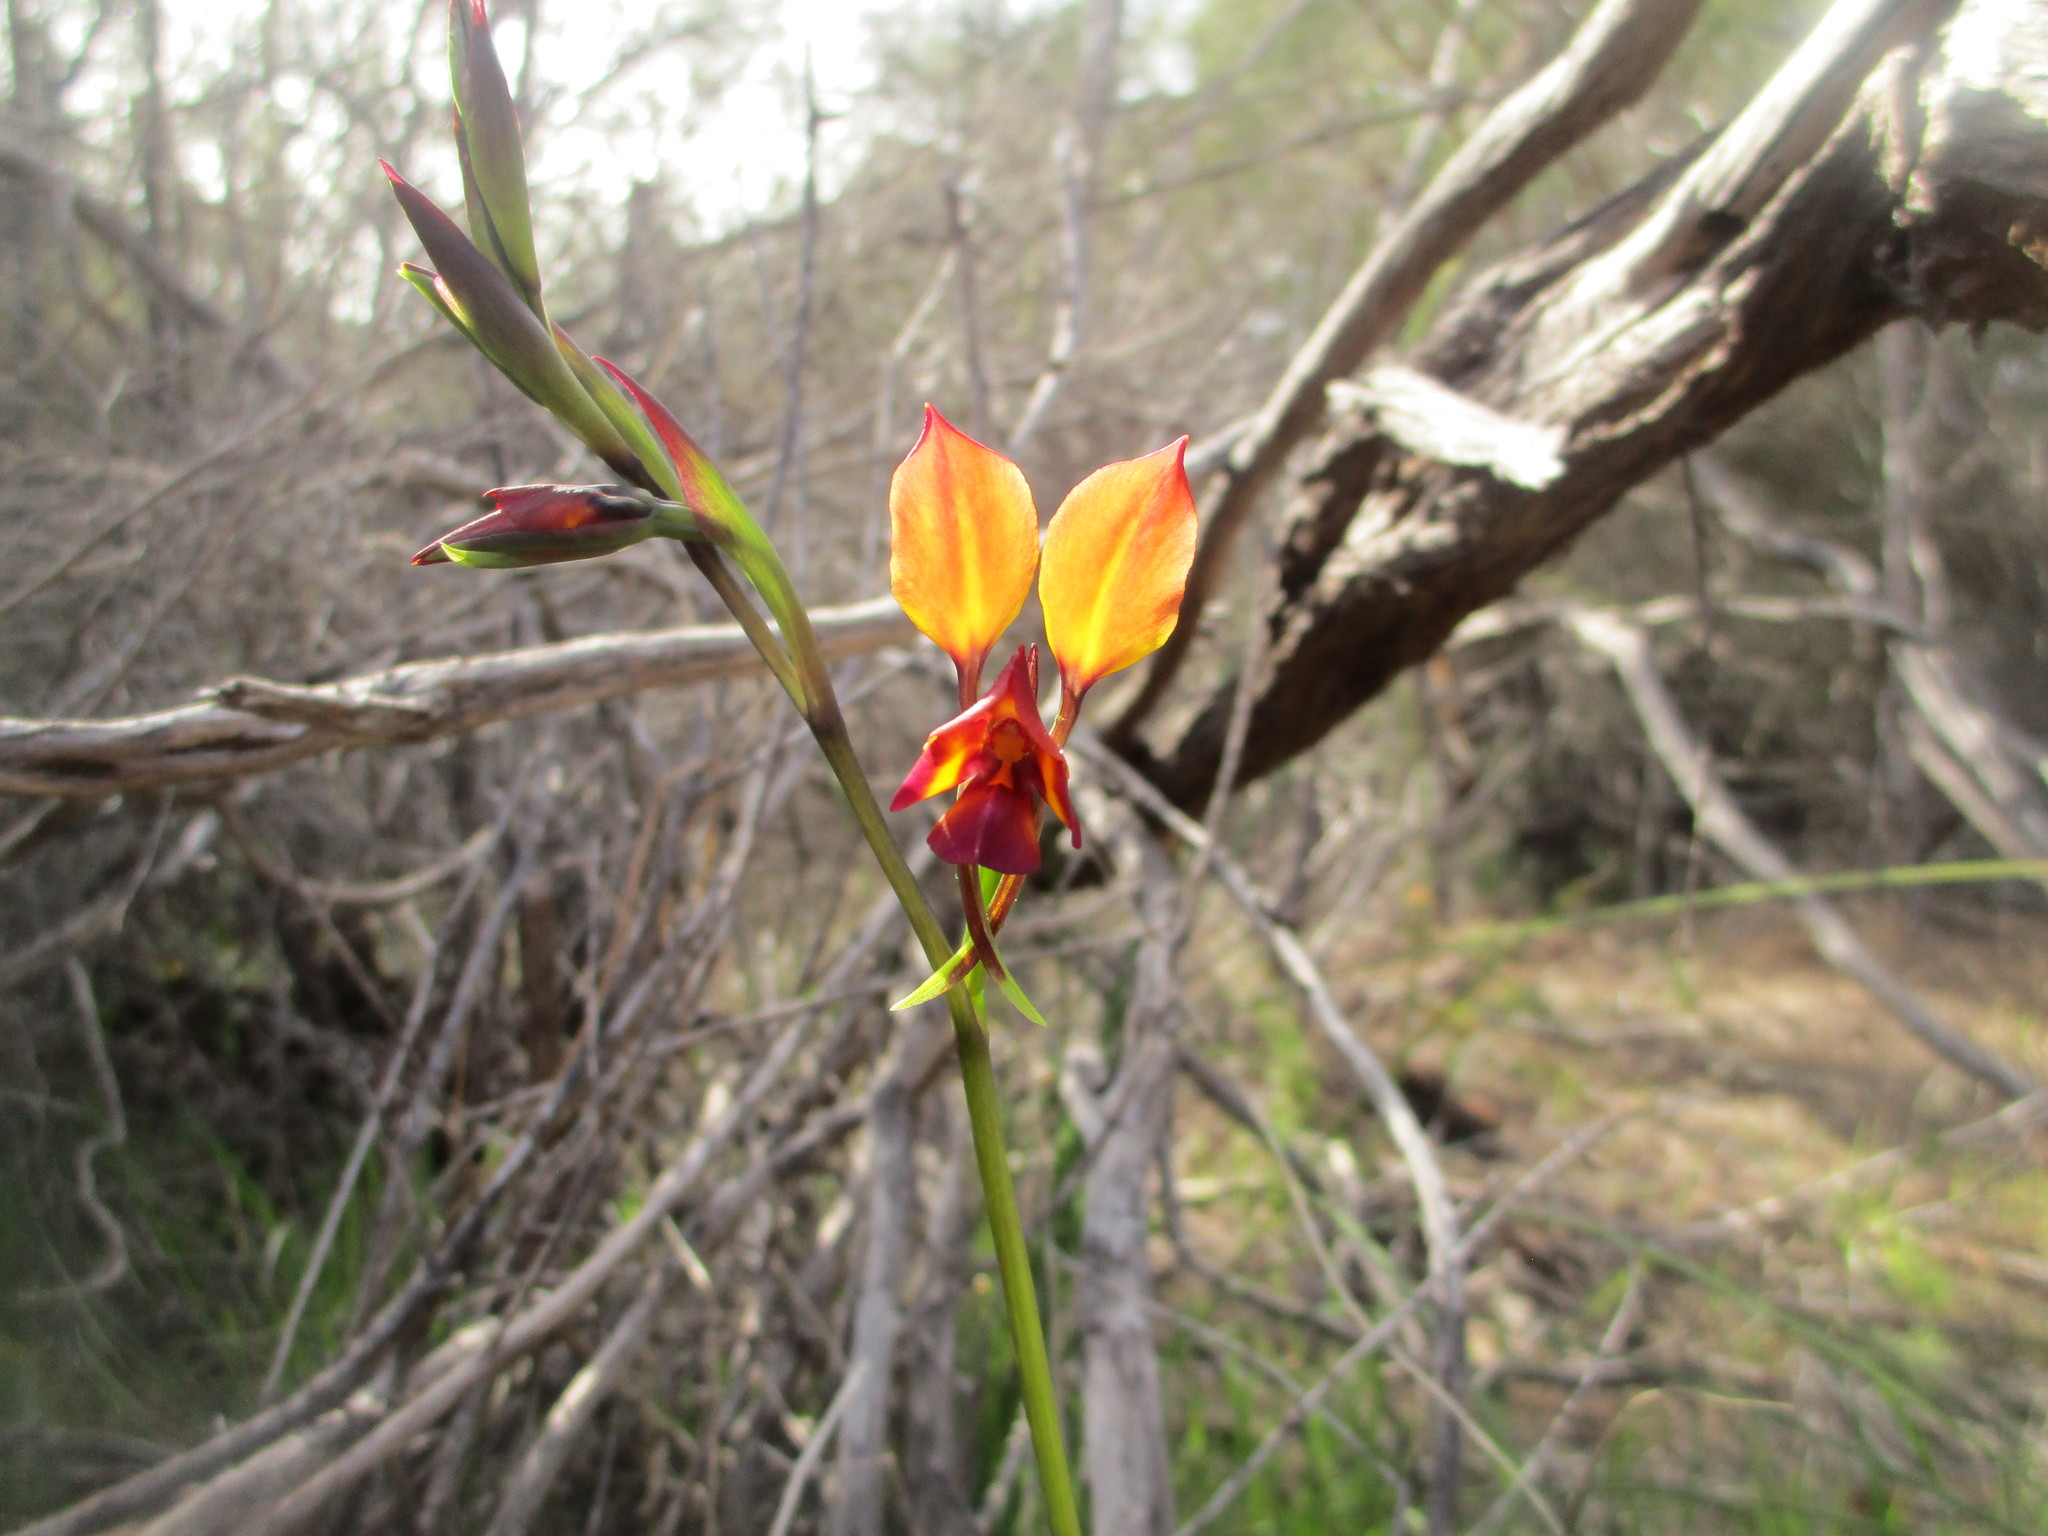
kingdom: Plantae
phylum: Tracheophyta
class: Liliopsida
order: Asparagales
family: Orchidaceae
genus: Diuris
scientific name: Diuris magnifica
